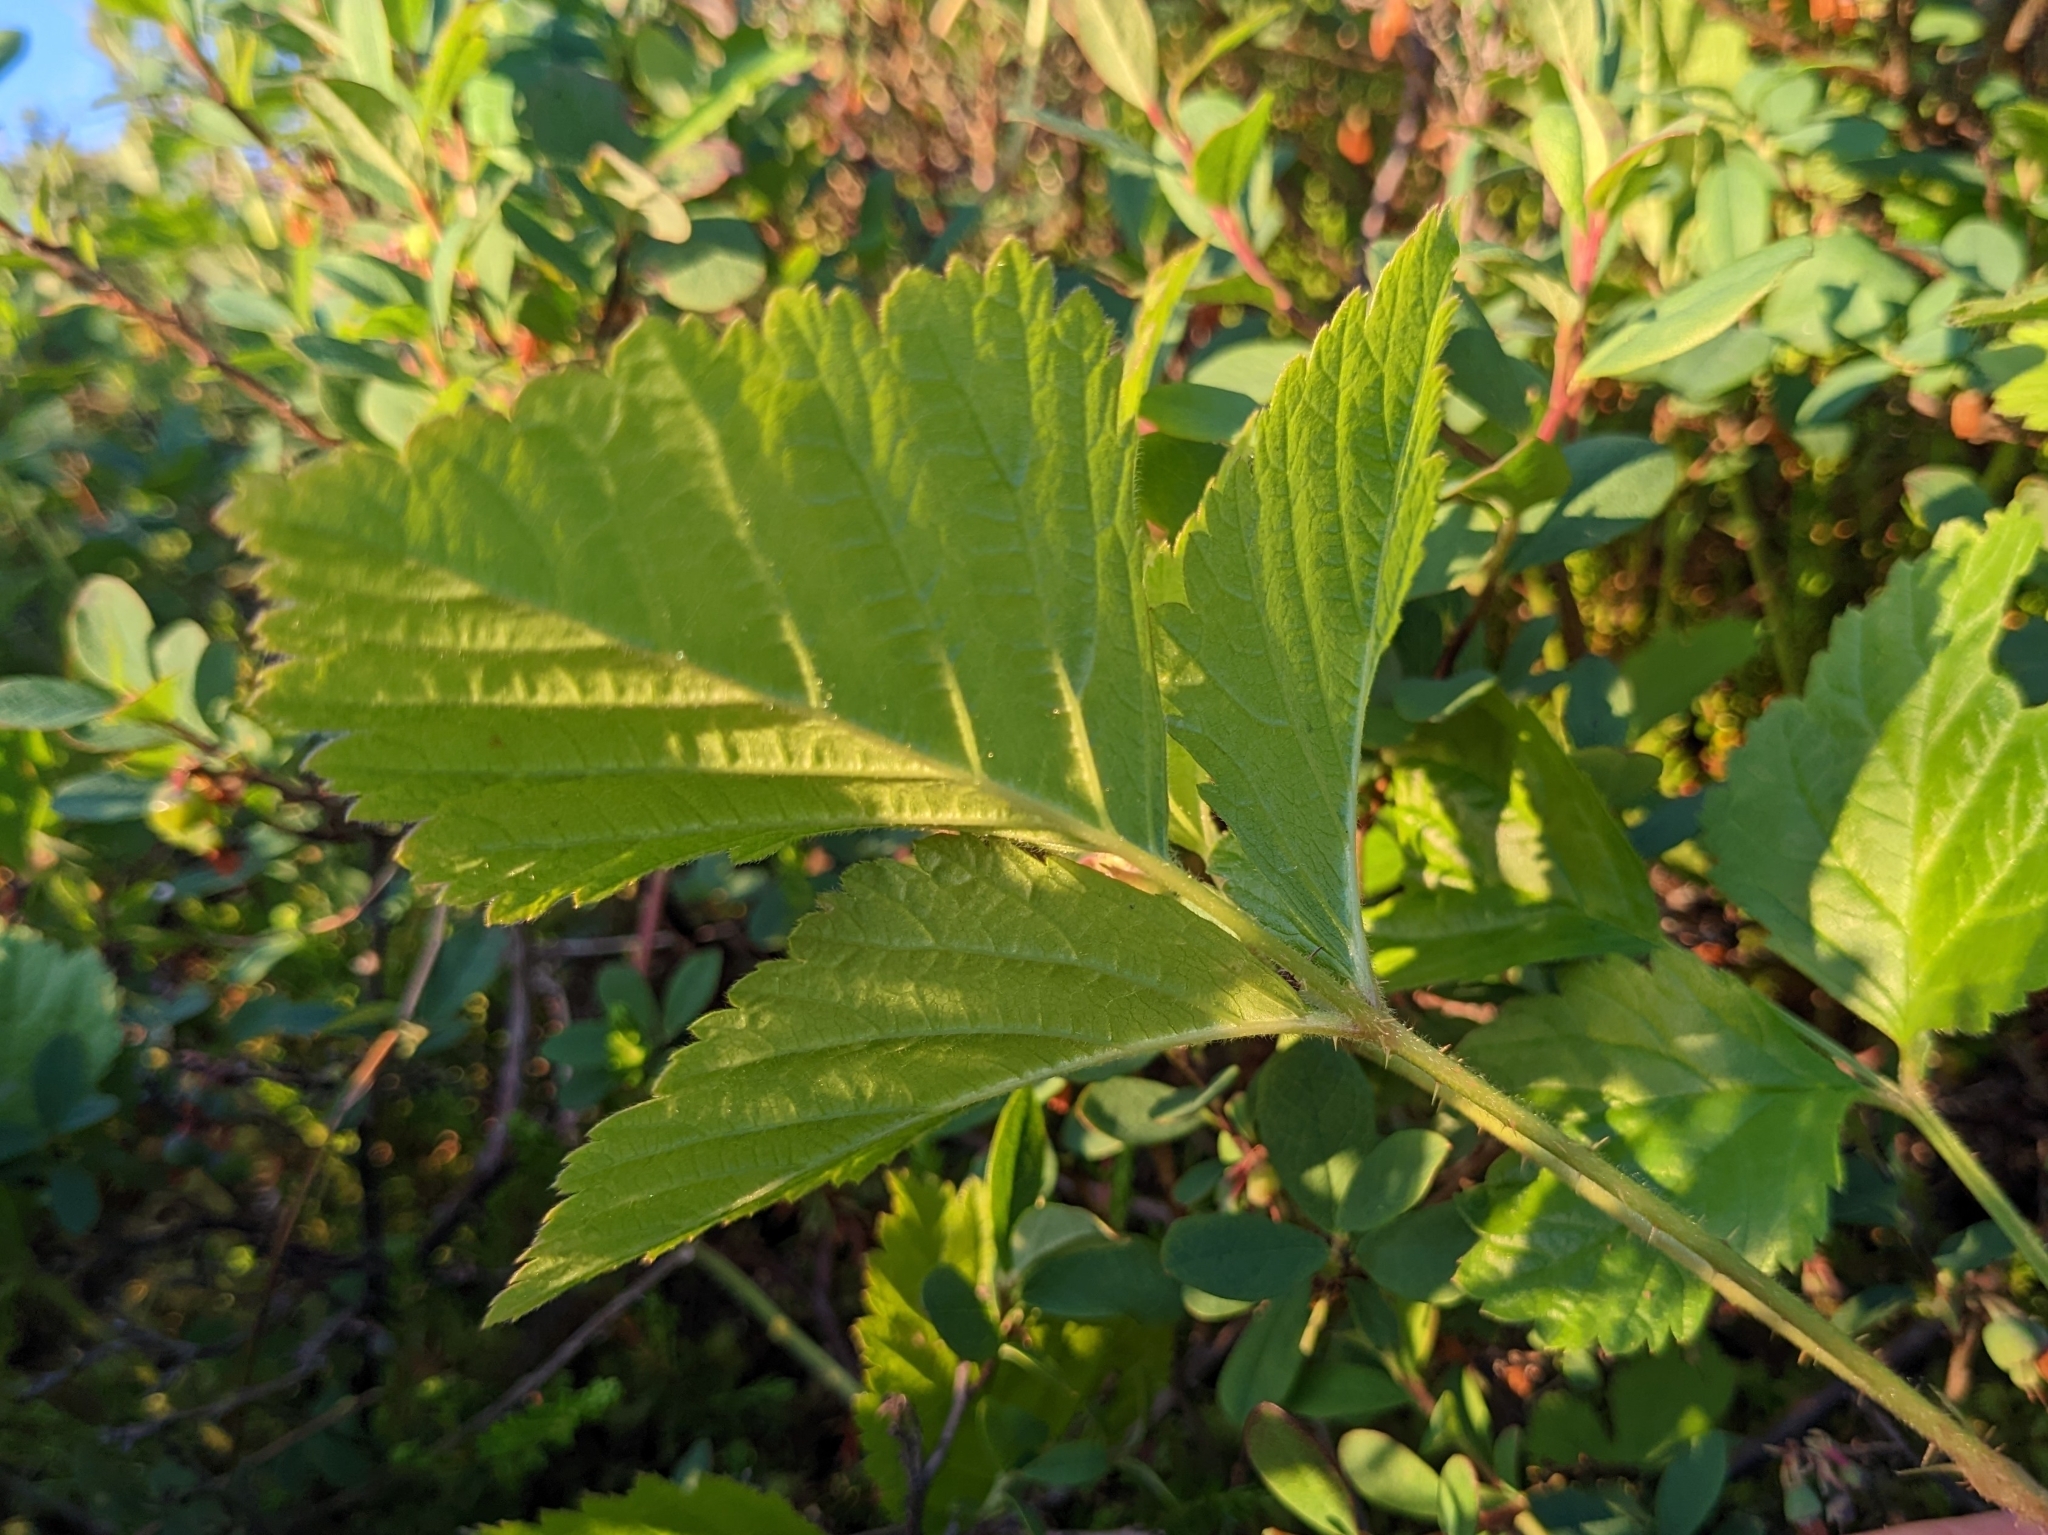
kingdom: Plantae
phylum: Tracheophyta
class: Magnoliopsida
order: Rosales
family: Rosaceae
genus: Rubus
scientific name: Rubus saxatilis
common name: Stone bramble
